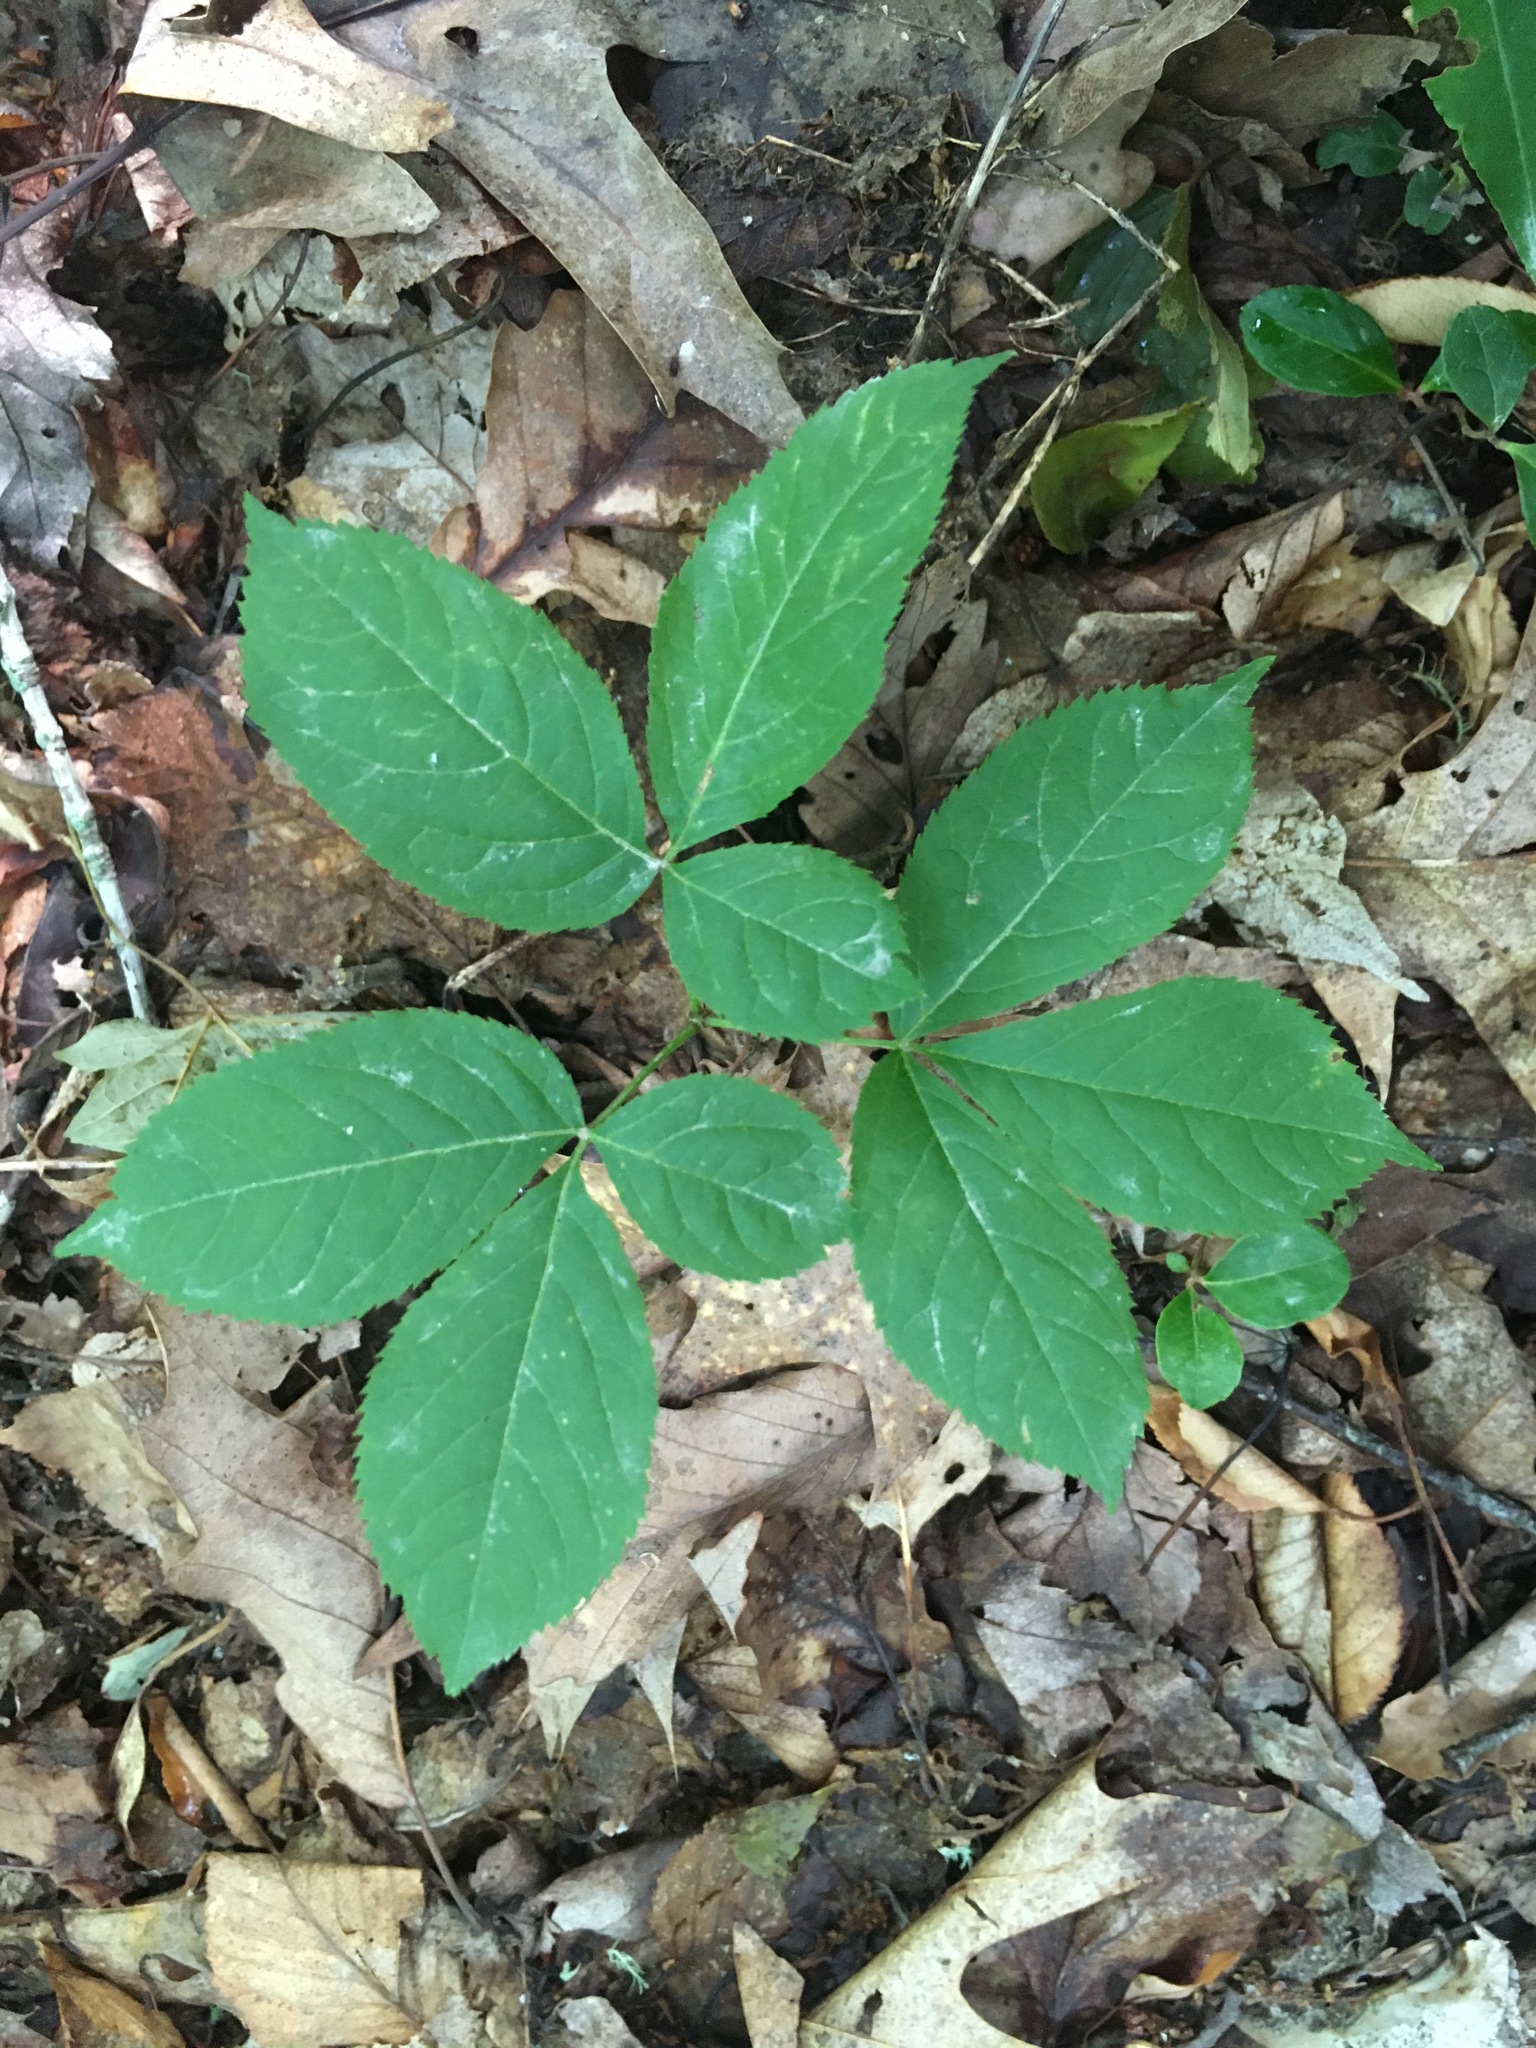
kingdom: Plantae
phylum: Tracheophyta
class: Magnoliopsida
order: Apiales
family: Araliaceae
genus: Aralia
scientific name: Aralia nudicaulis
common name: Wild sarsaparilla
